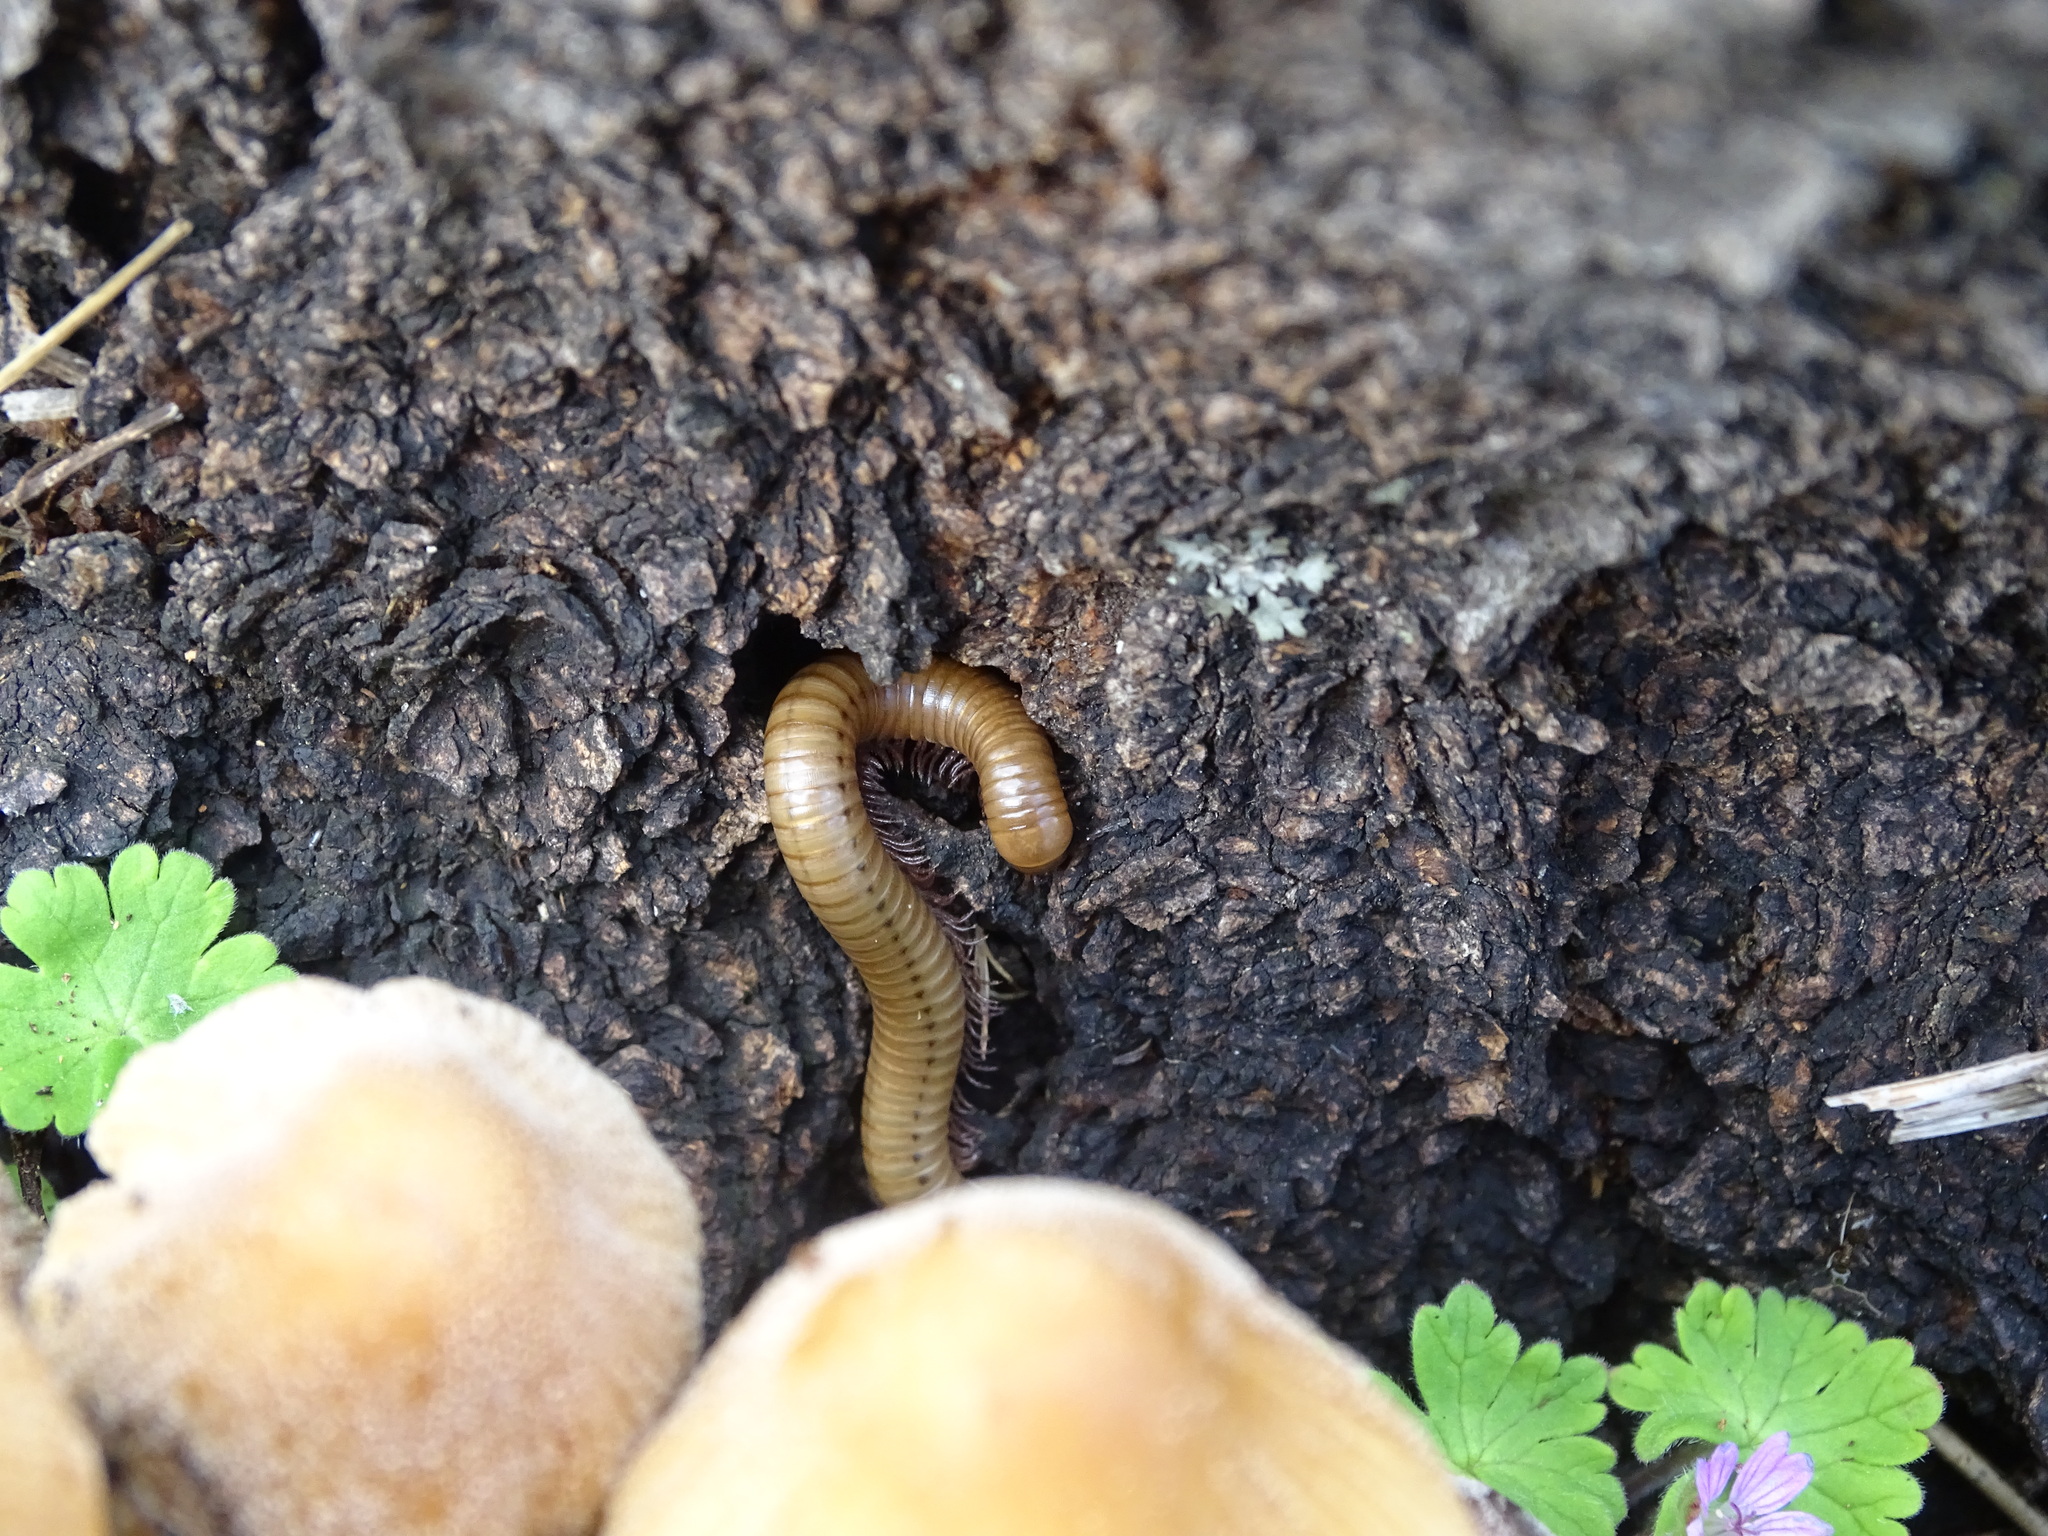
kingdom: Animalia
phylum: Arthropoda
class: Diplopoda
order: Julida
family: Julidae
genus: Pachyiulus
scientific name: Pachyiulus cattarensis
